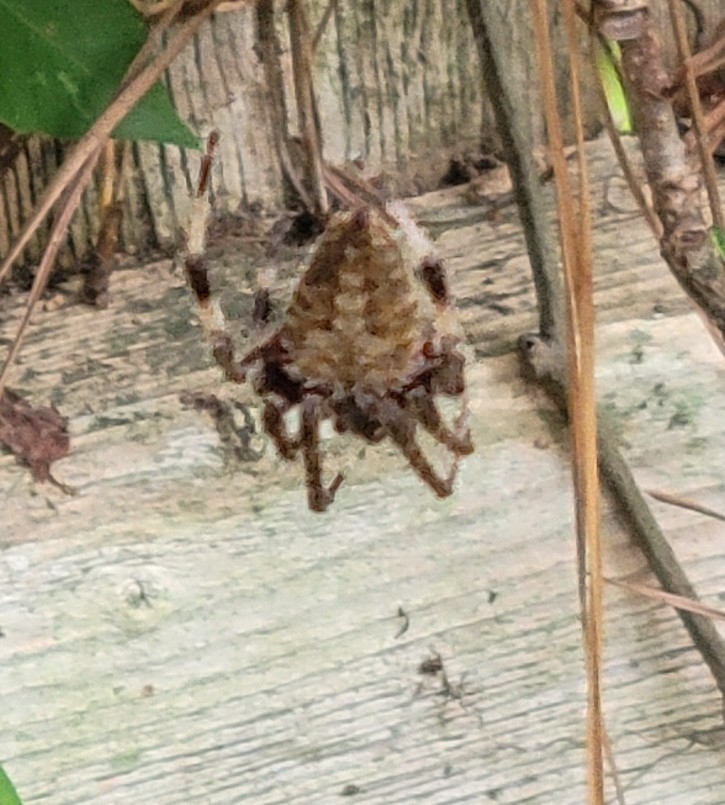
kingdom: Animalia
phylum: Arthropoda
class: Arachnida
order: Araneae
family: Araneidae
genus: Neoscona
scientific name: Neoscona crucifera
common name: Spotted orbweaver
